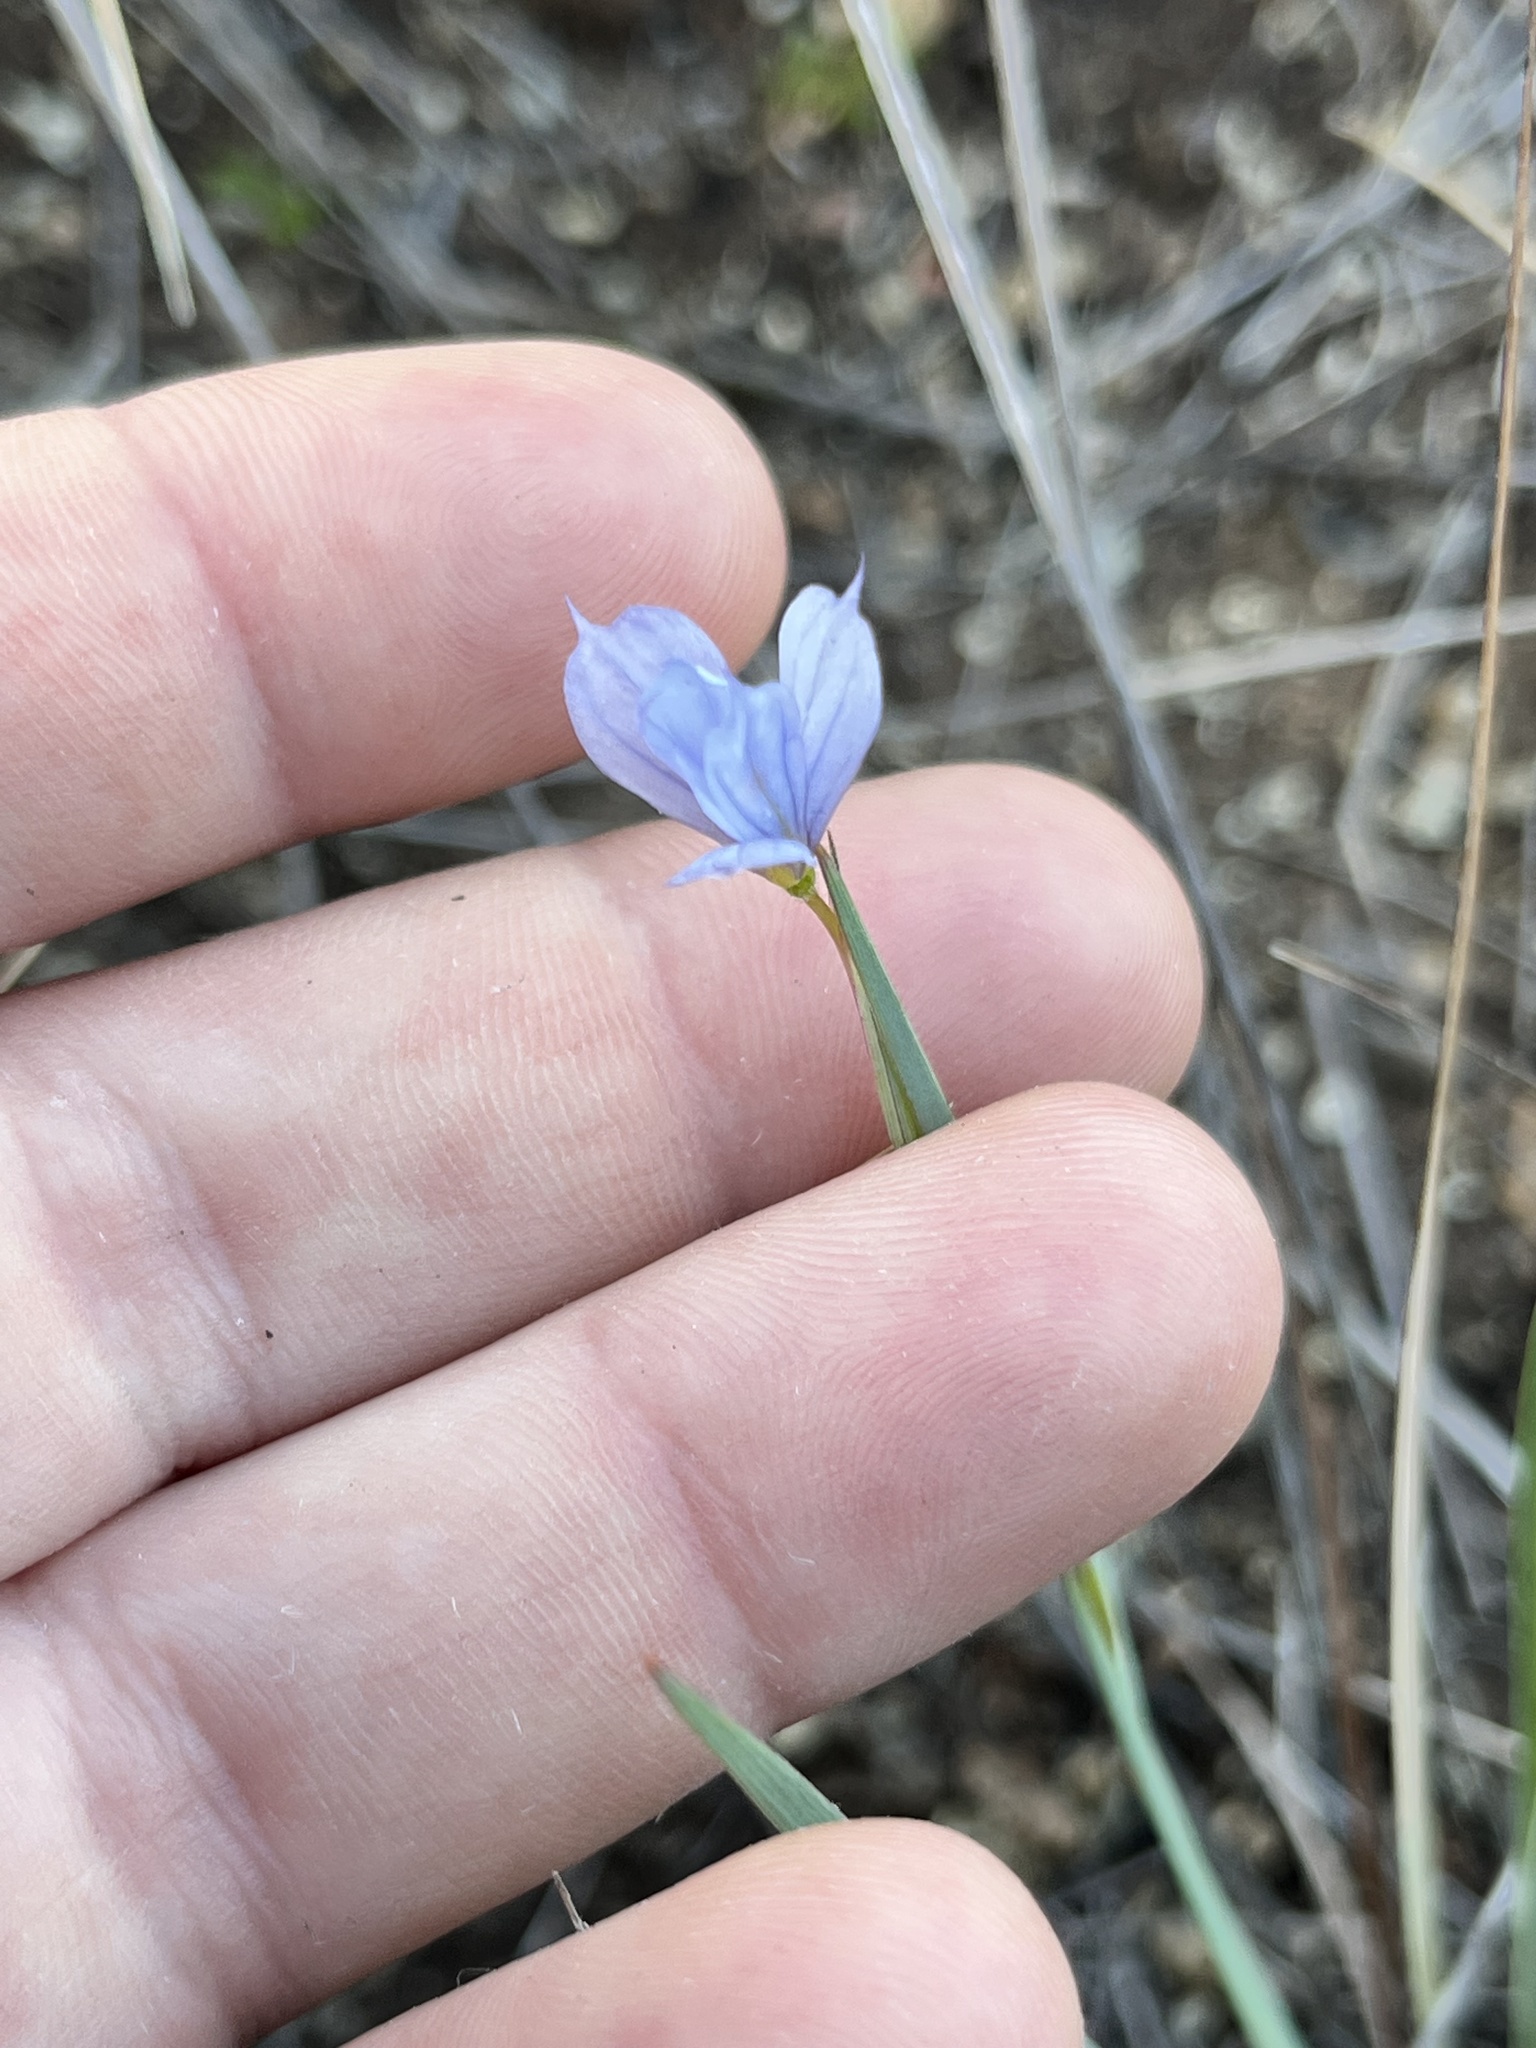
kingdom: Plantae
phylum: Tracheophyta
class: Liliopsida
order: Asparagales
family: Iridaceae
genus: Sisyrinchium
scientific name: Sisyrinchium bellum
